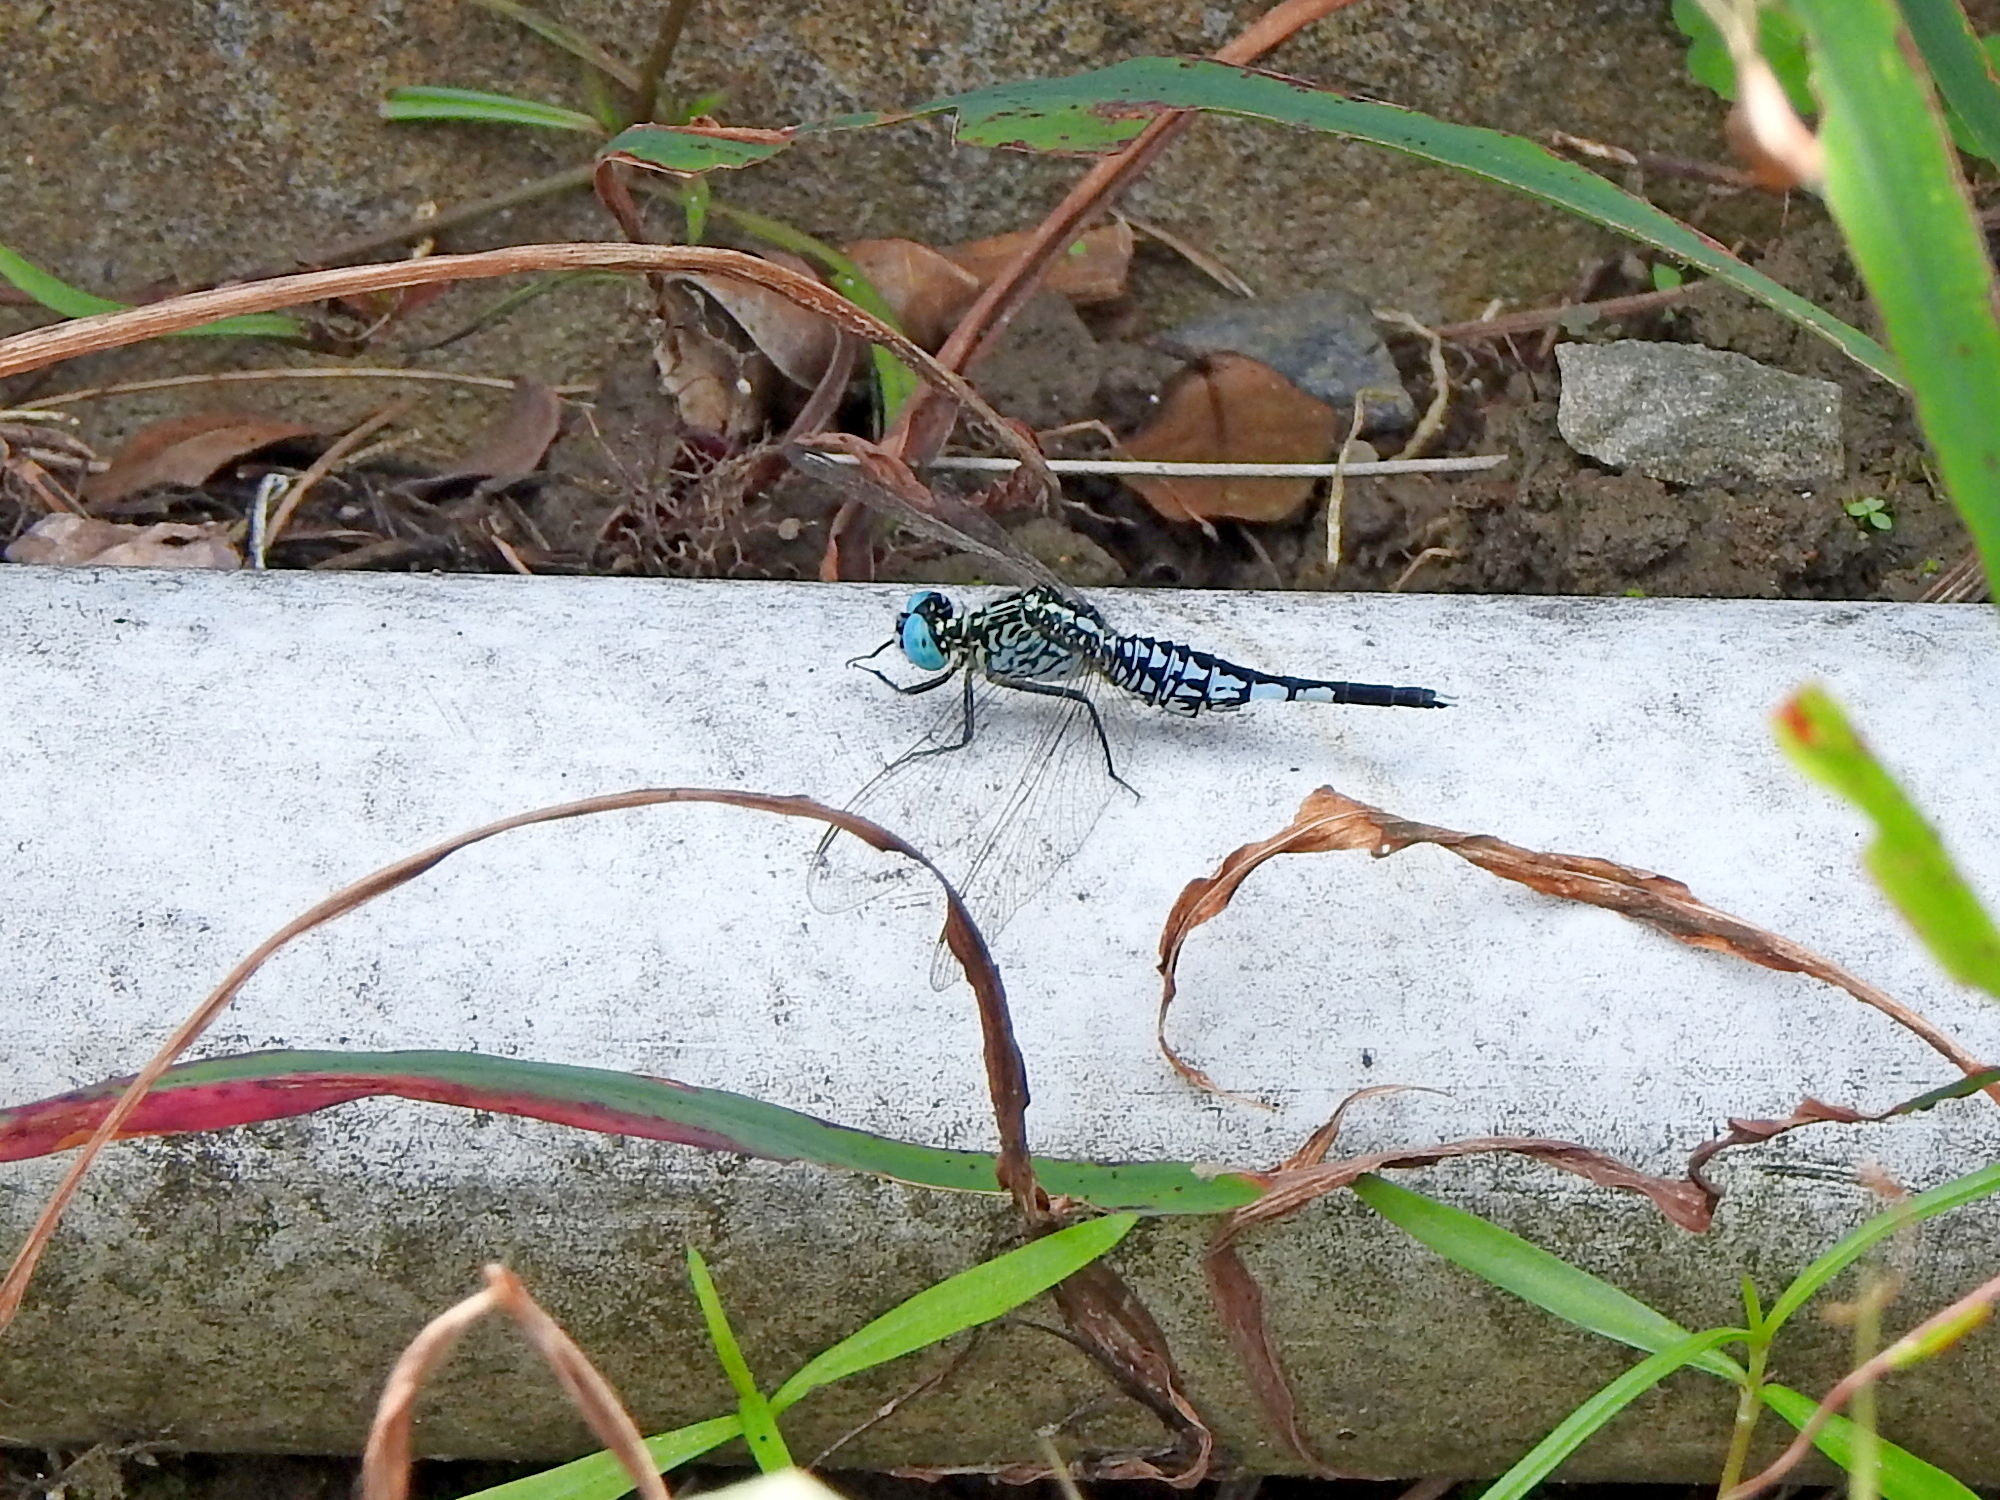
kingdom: Animalia
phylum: Arthropoda
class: Insecta
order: Odonata
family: Libellulidae
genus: Acisoma
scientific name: Acisoma panorpoides
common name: Asian pintail
